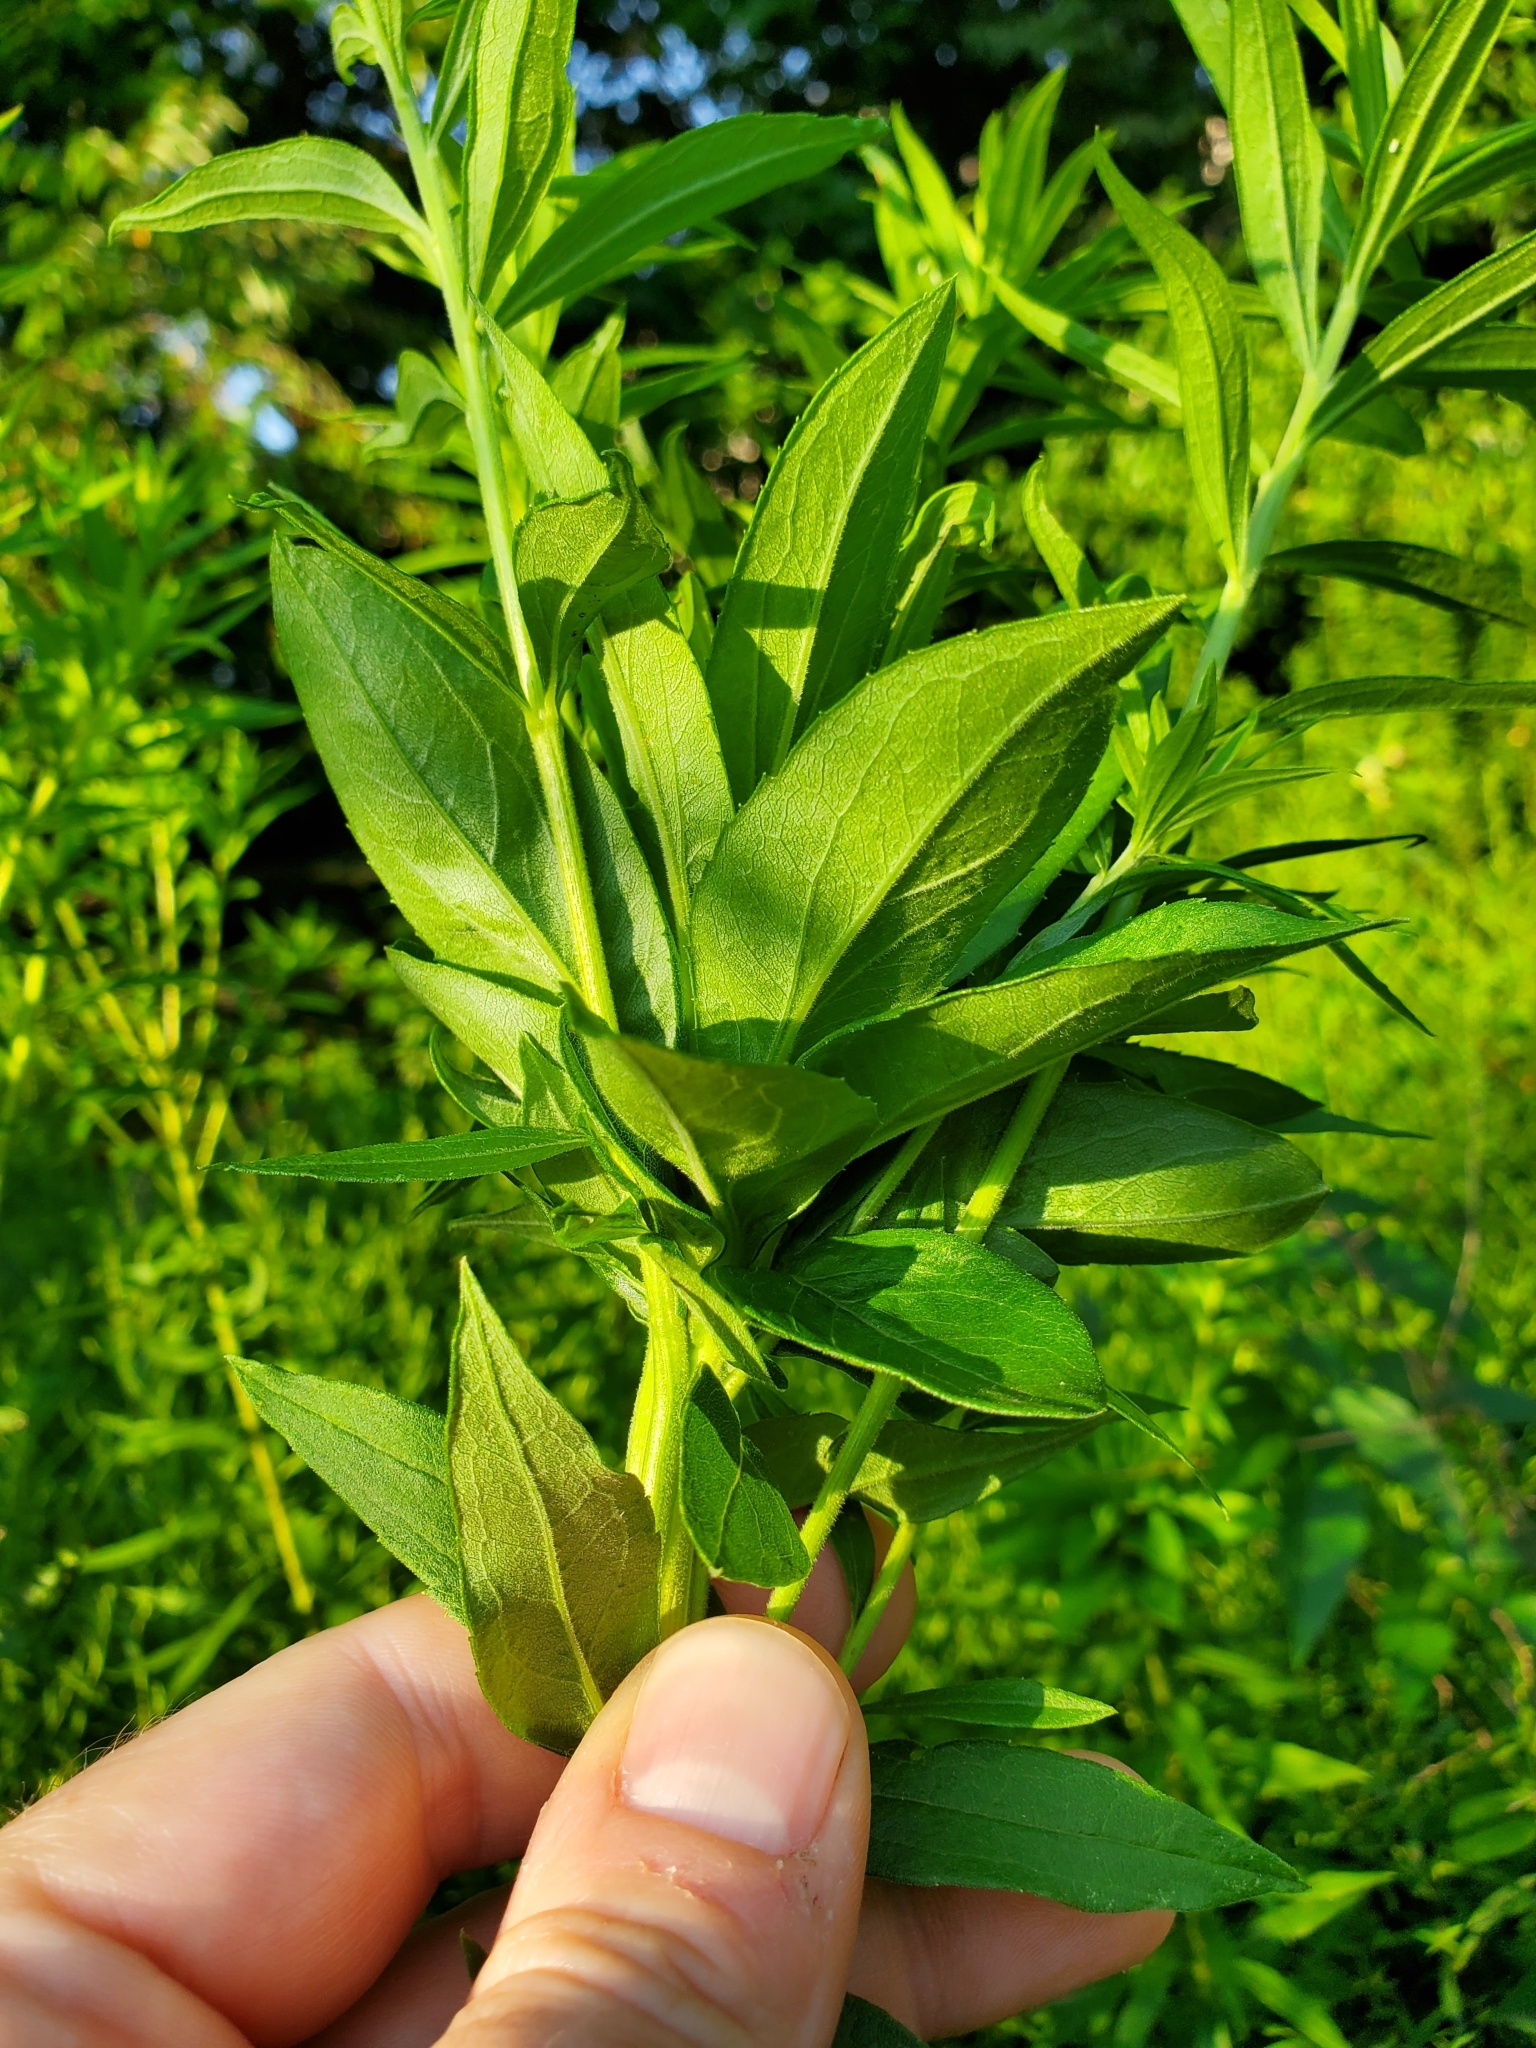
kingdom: Animalia
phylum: Arthropoda
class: Insecta
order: Diptera
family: Cecidomyiidae
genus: Rhopalomyia
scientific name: Rhopalomyia solidaginis
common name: Goldenrod bunch gall midge
